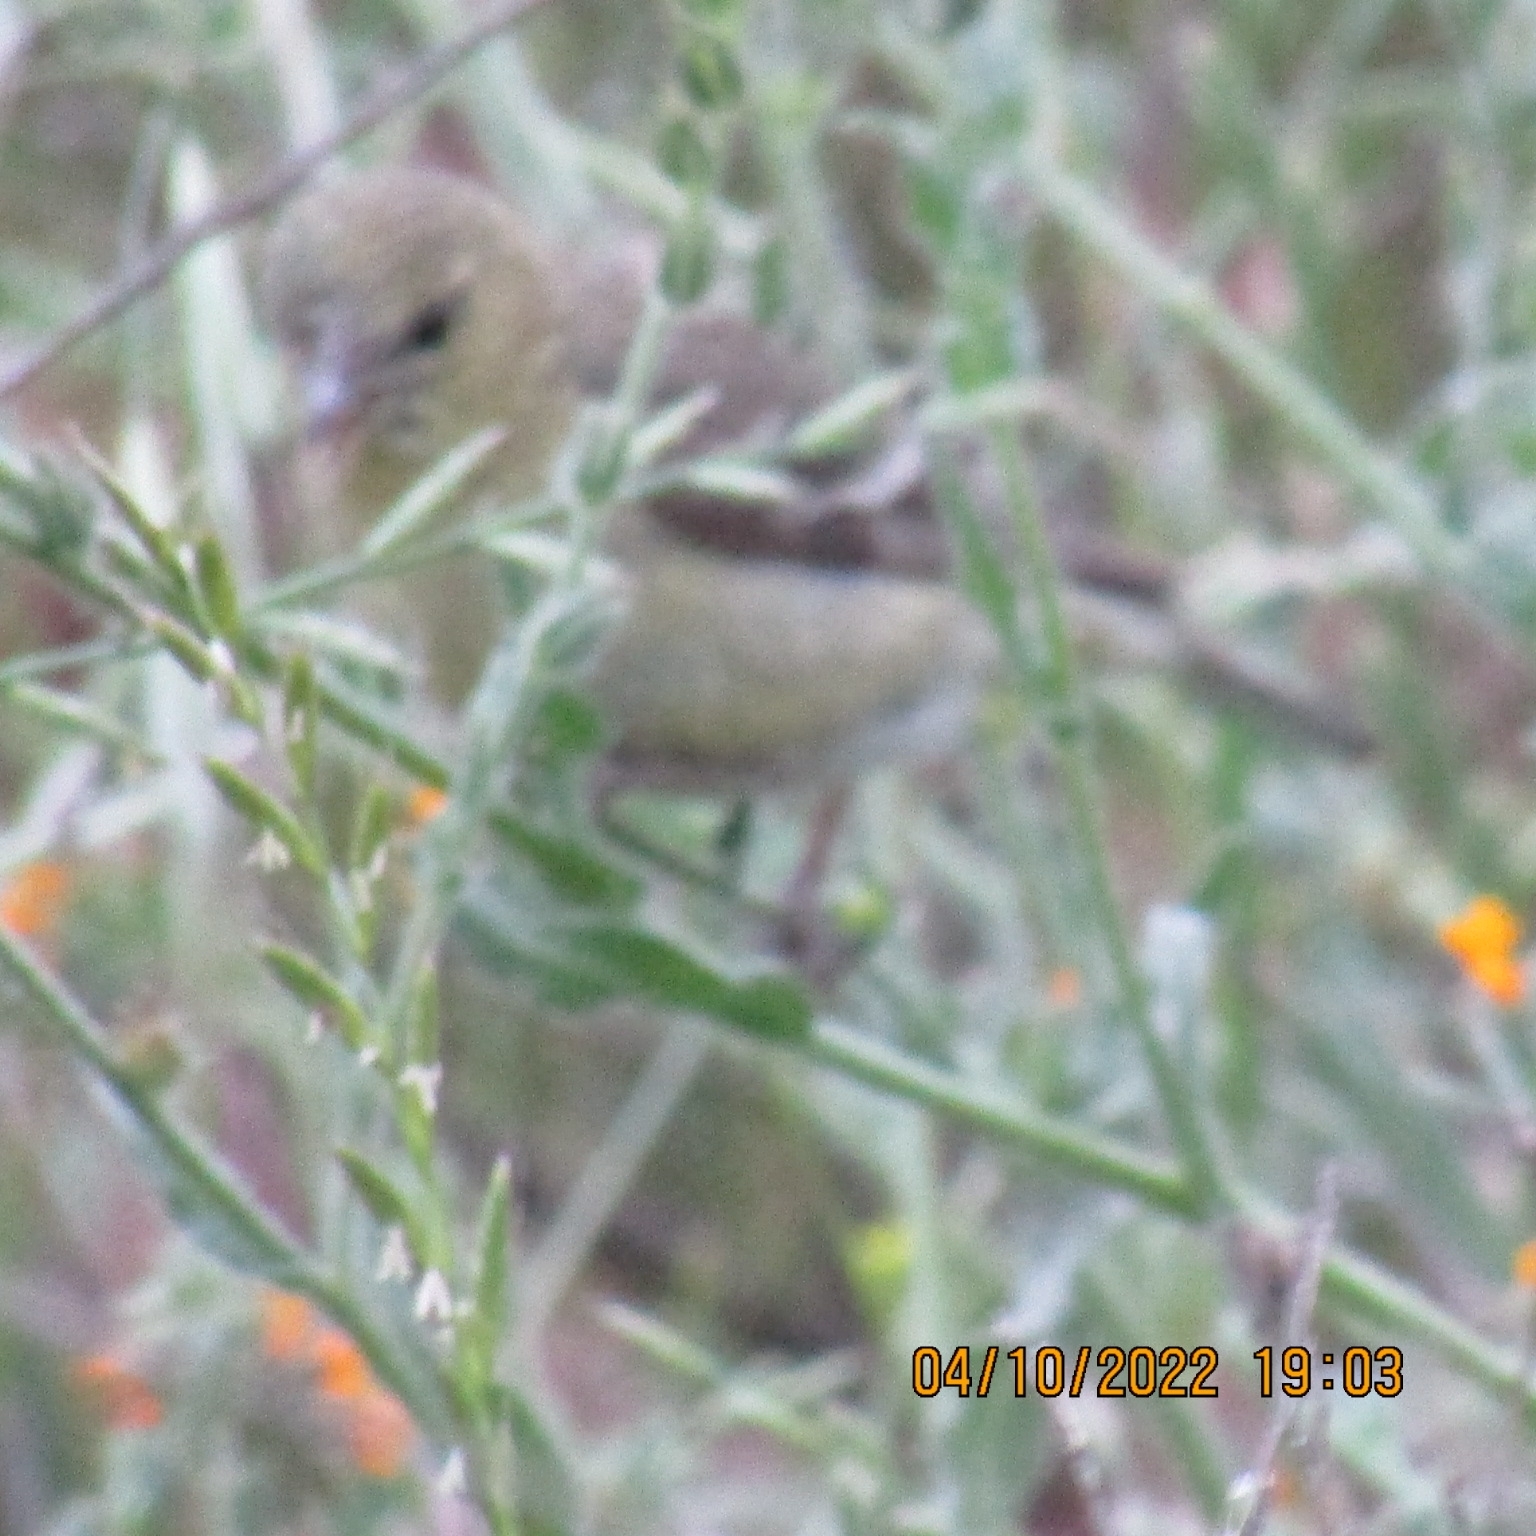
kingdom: Animalia
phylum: Chordata
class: Aves
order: Passeriformes
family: Fringillidae
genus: Spinus
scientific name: Spinus psaltria
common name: Lesser goldfinch
